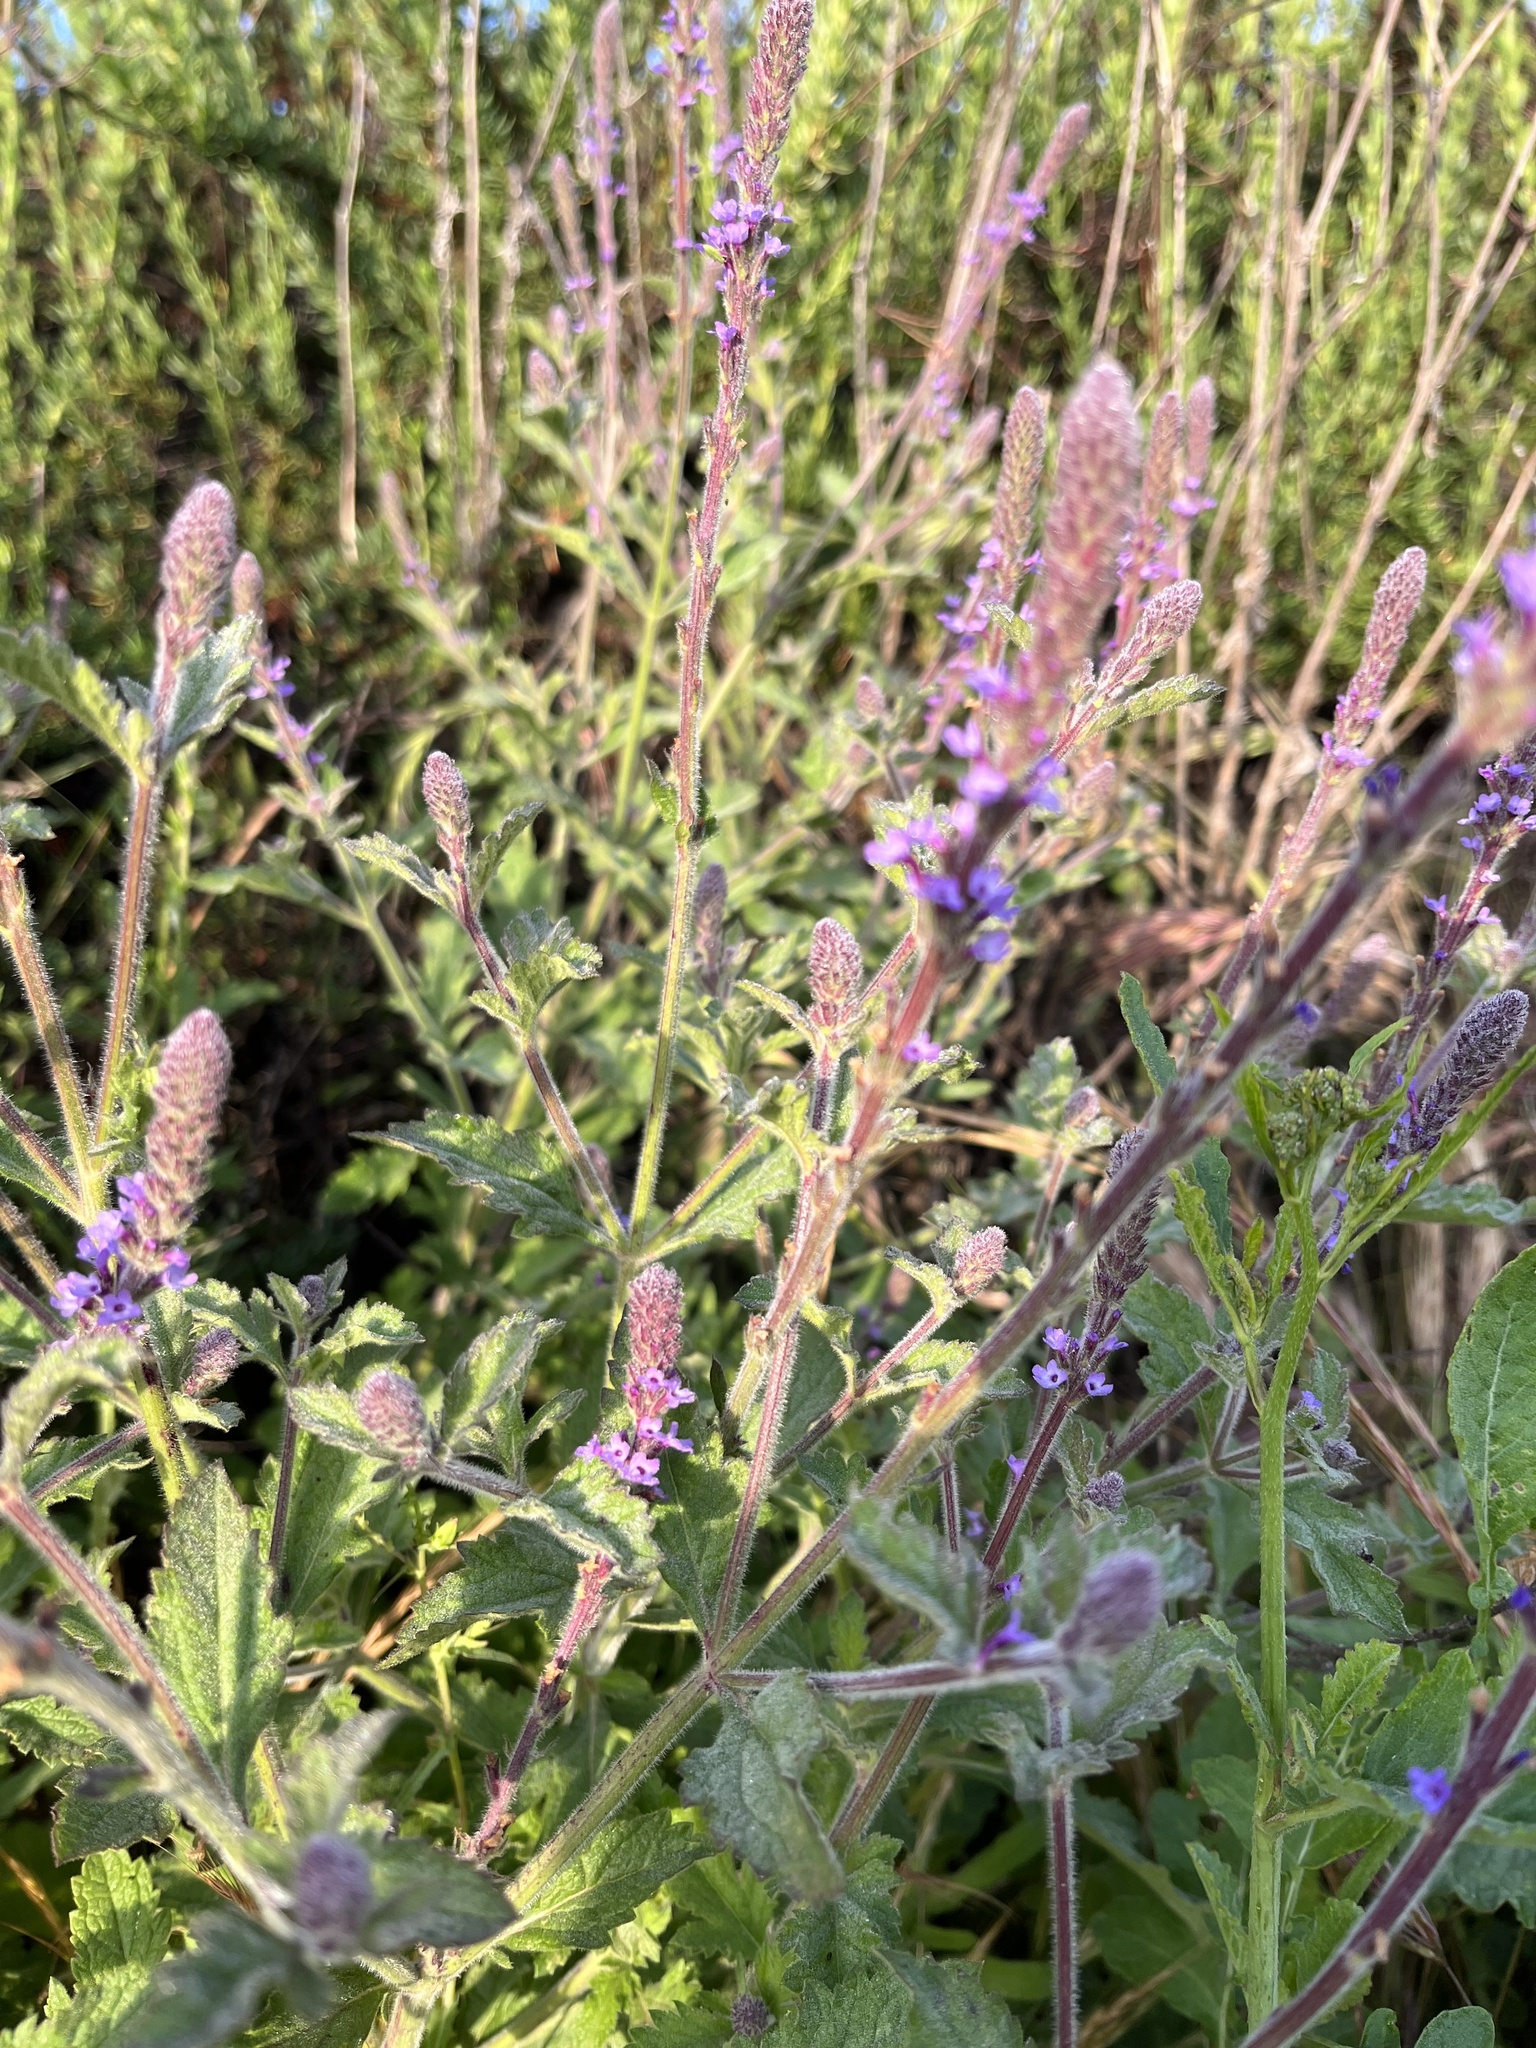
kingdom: Plantae
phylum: Tracheophyta
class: Magnoliopsida
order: Lamiales
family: Verbenaceae
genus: Verbena
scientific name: Verbena lasiostachys
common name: Vervain
